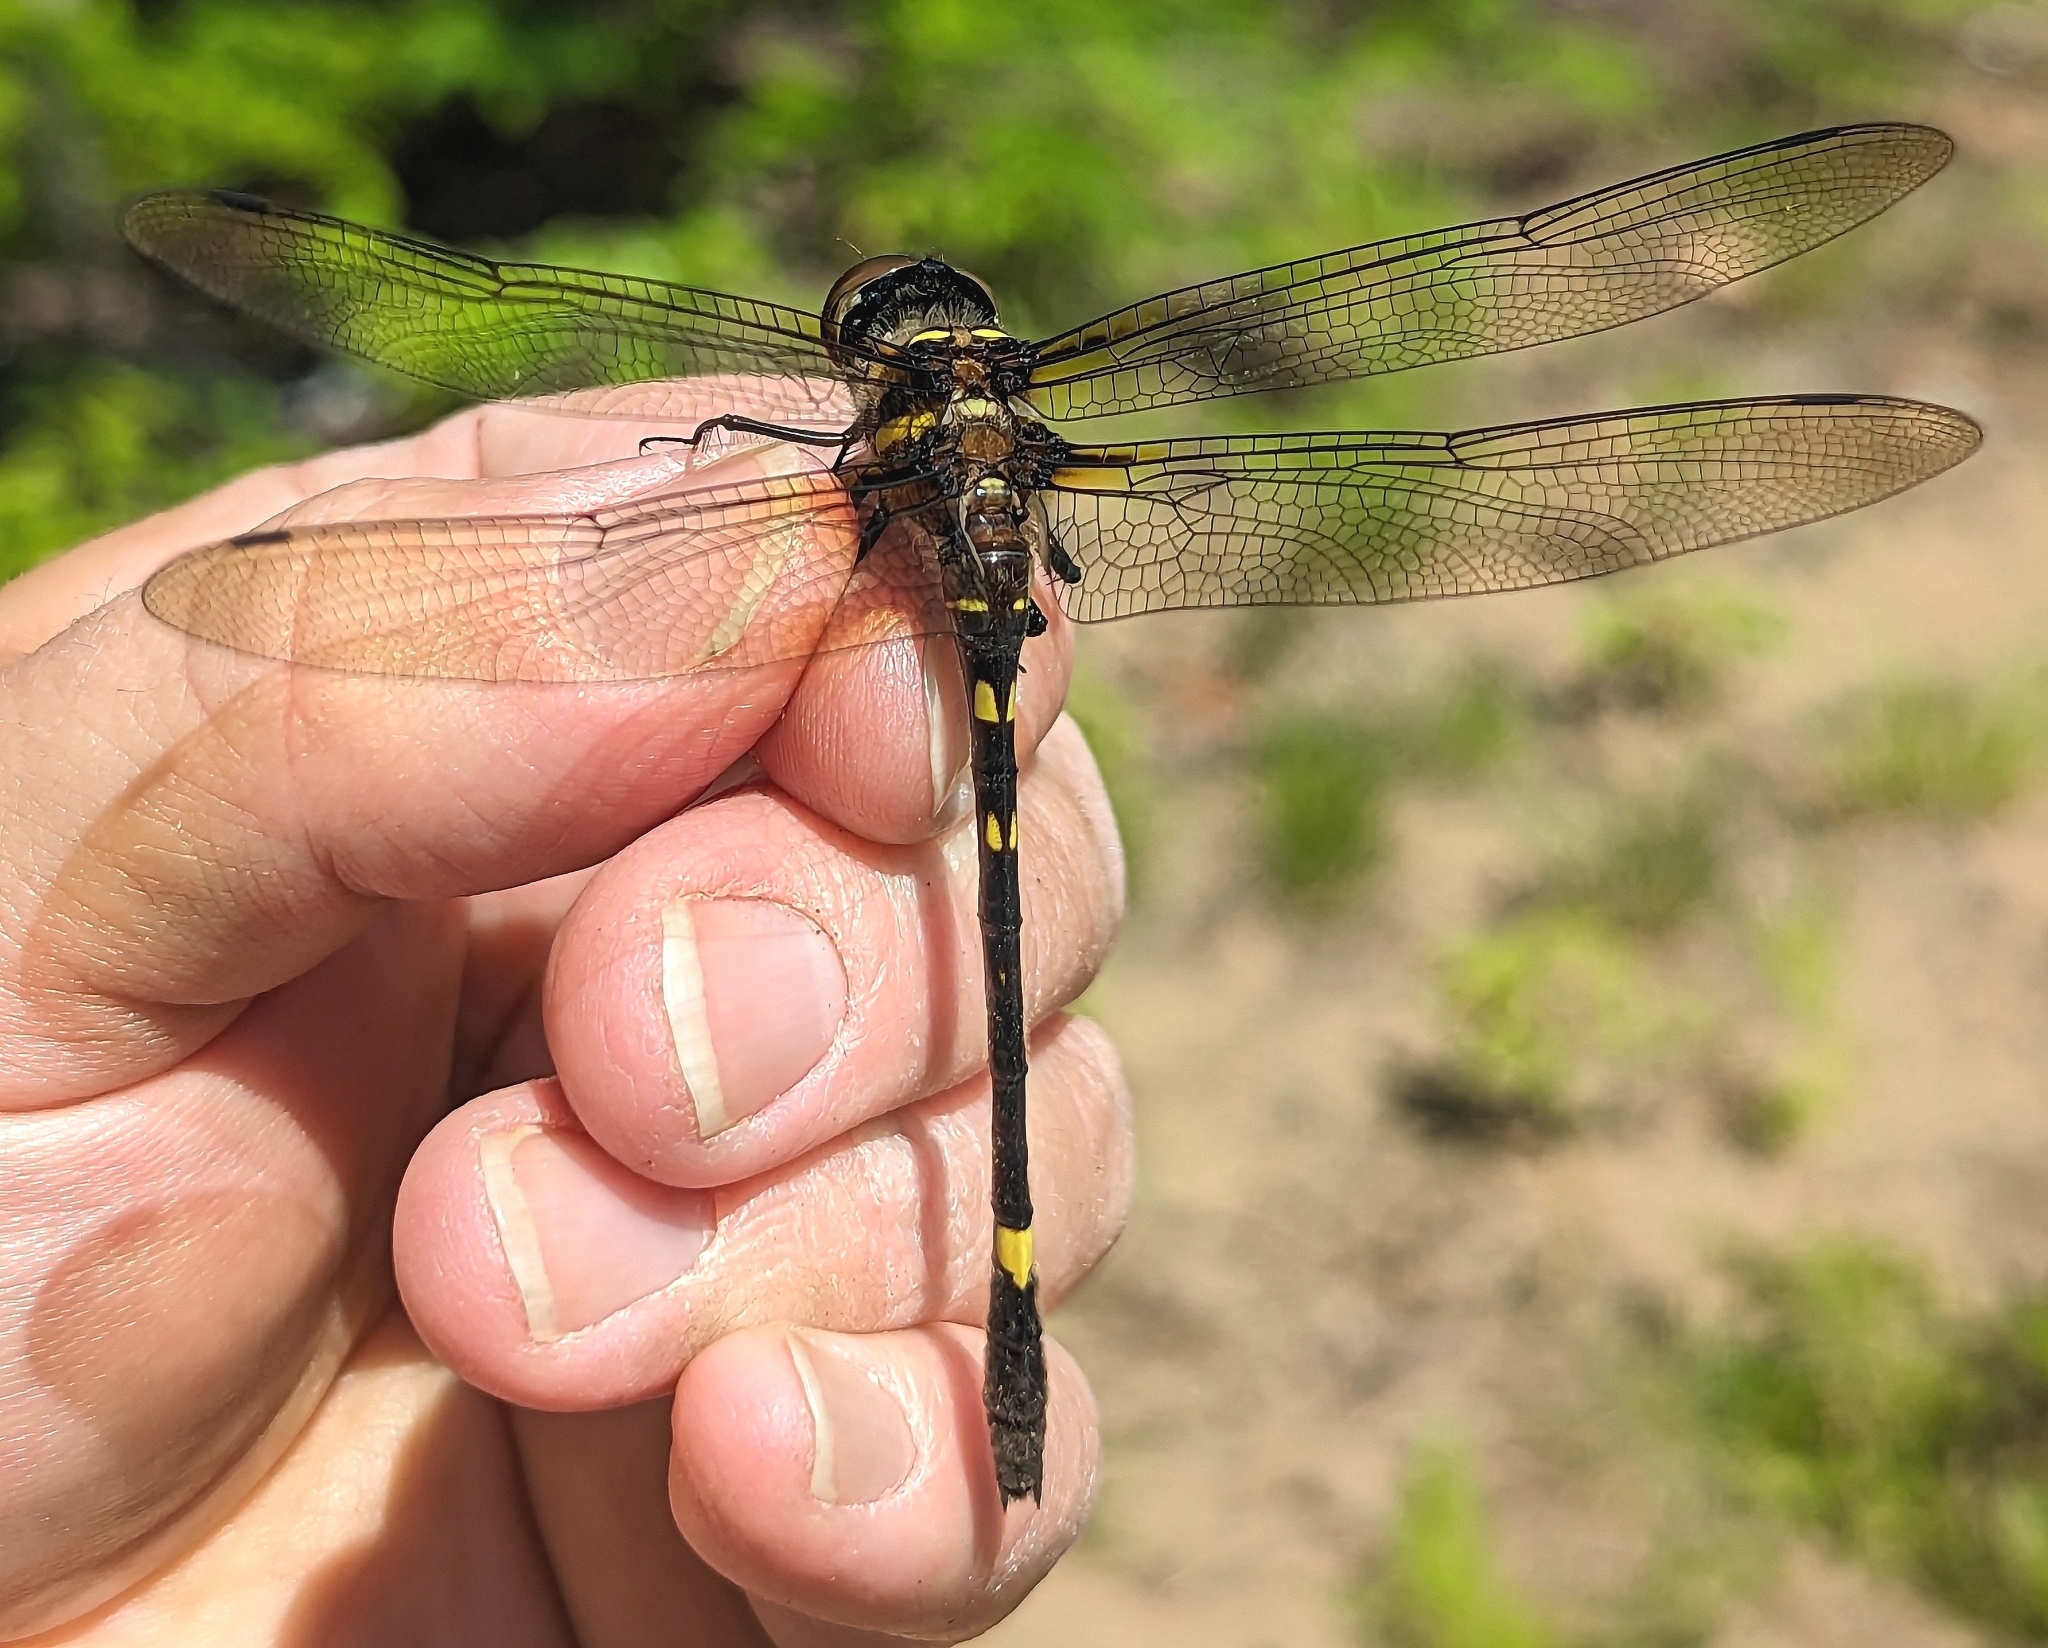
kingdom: Animalia
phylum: Arthropoda
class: Insecta
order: Odonata
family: Macromiidae
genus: Macromia
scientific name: Macromia illinoiensis
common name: Swift river cruiser
